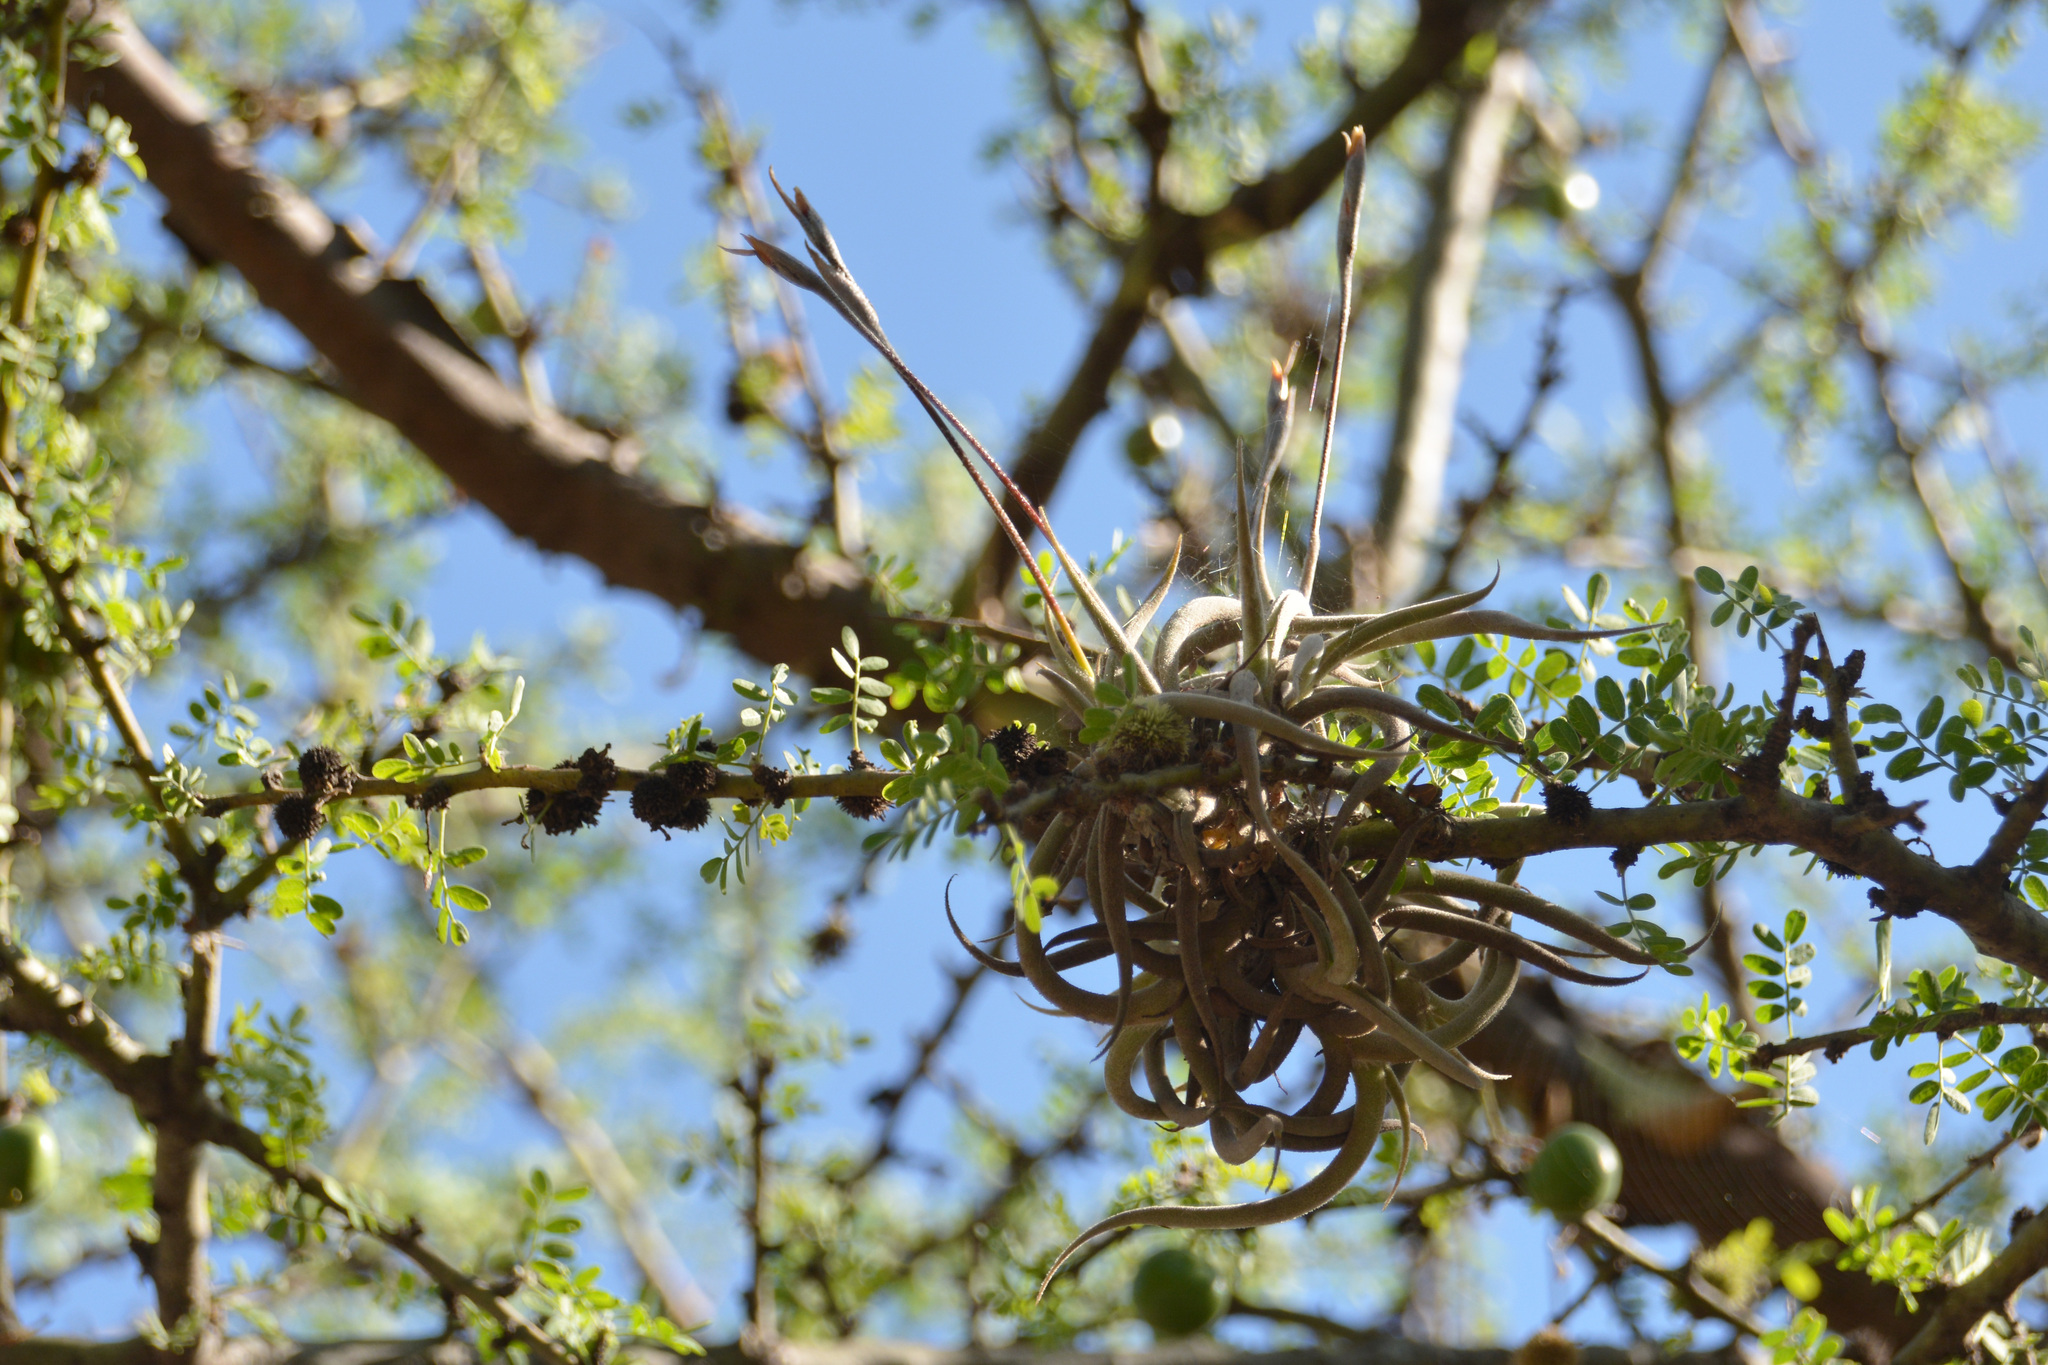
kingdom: Plantae
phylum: Tracheophyta
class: Liliopsida
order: Poales
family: Bromeliaceae
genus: Tillandsia
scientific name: Tillandsia myosura
